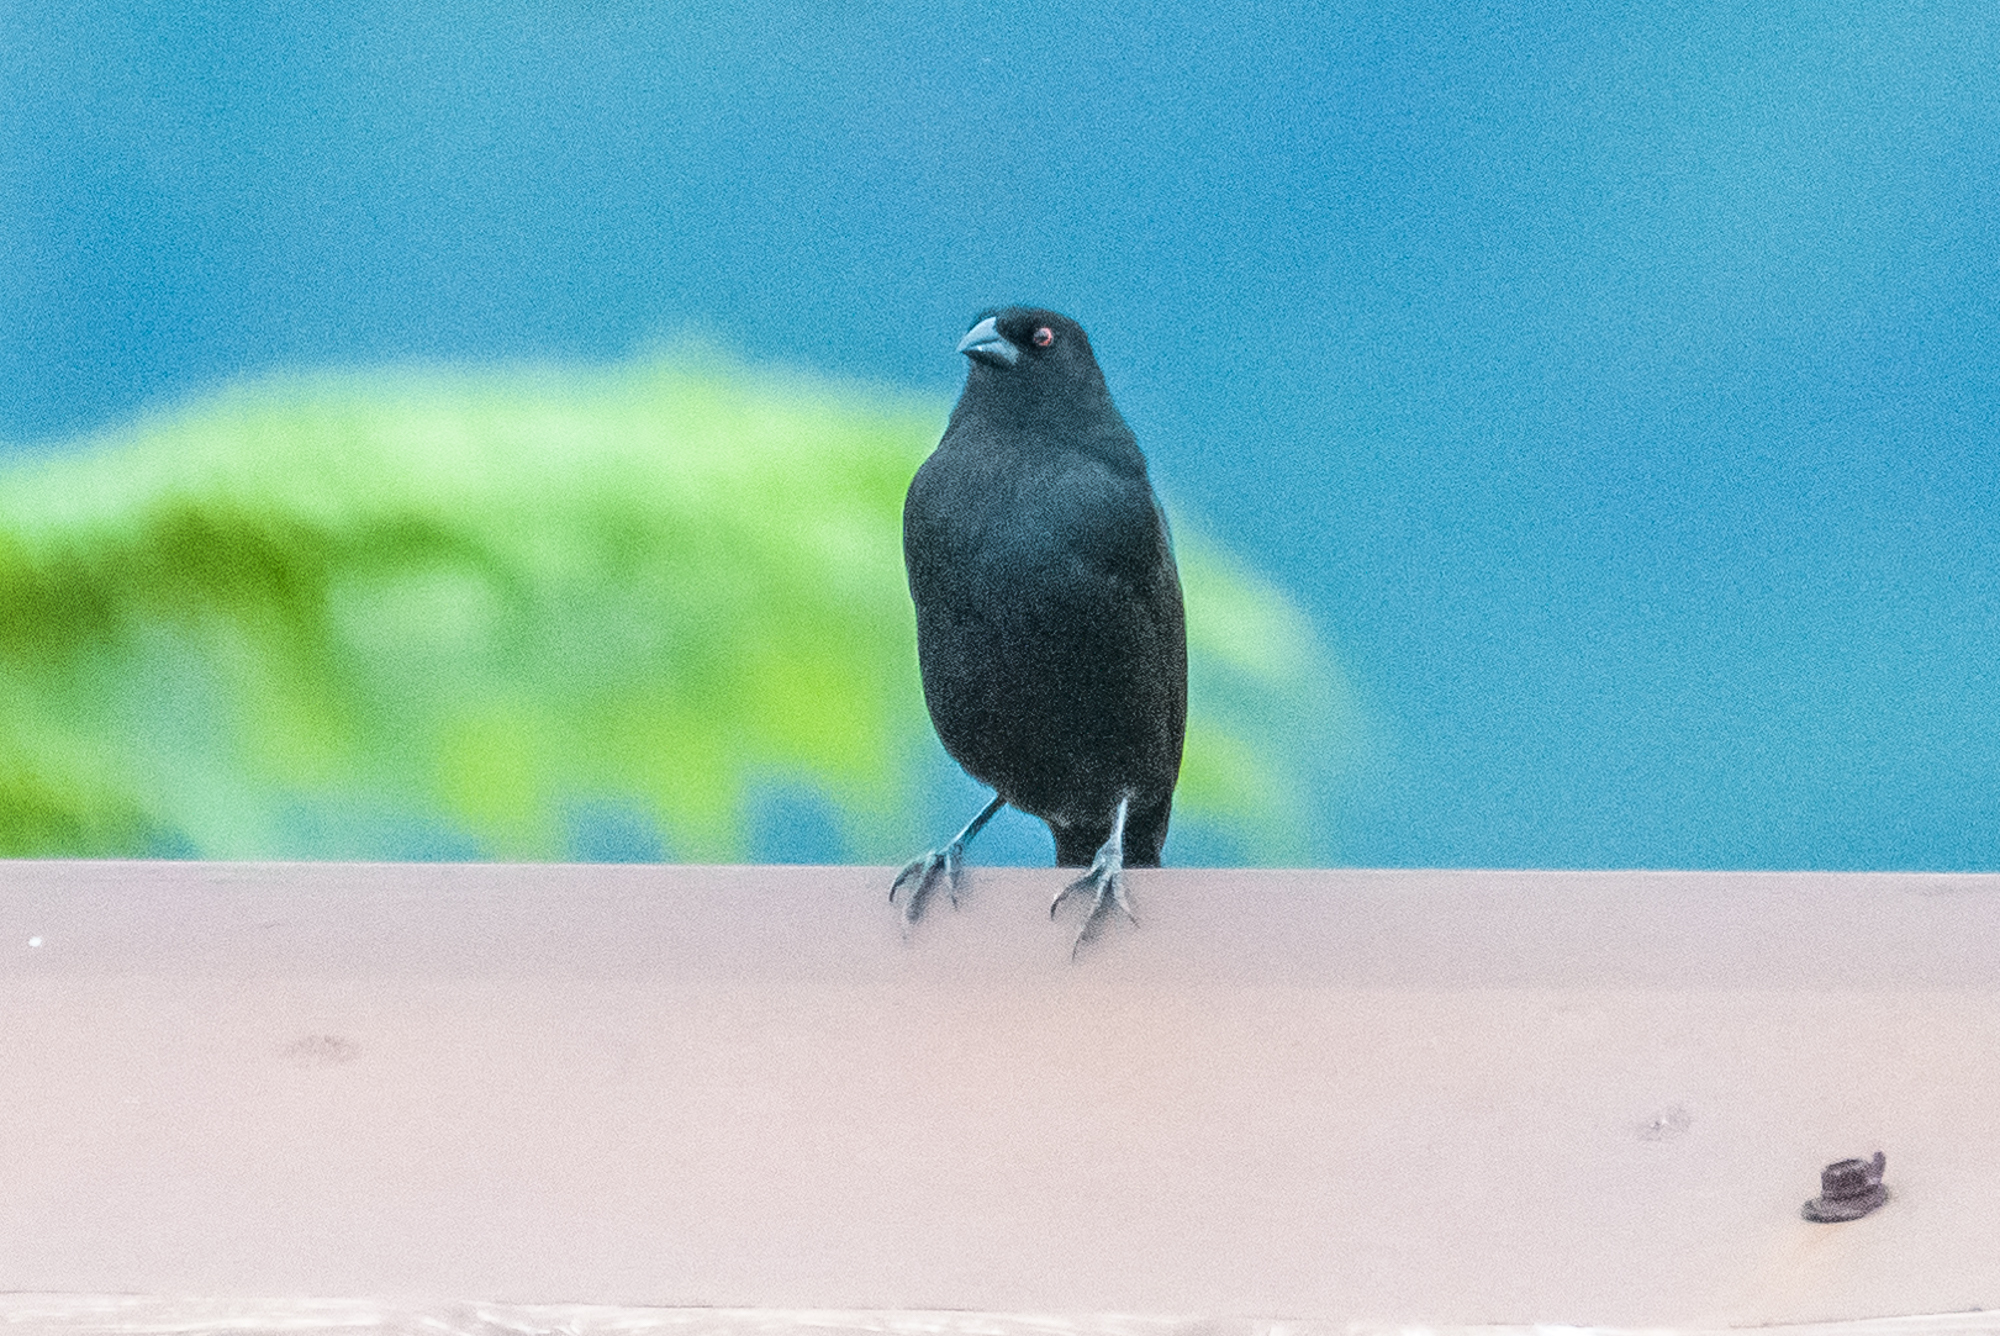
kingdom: Animalia
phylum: Chordata
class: Aves
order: Passeriformes
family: Icteridae
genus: Molothrus
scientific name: Molothrus aeneus
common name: Bronzed cowbird
